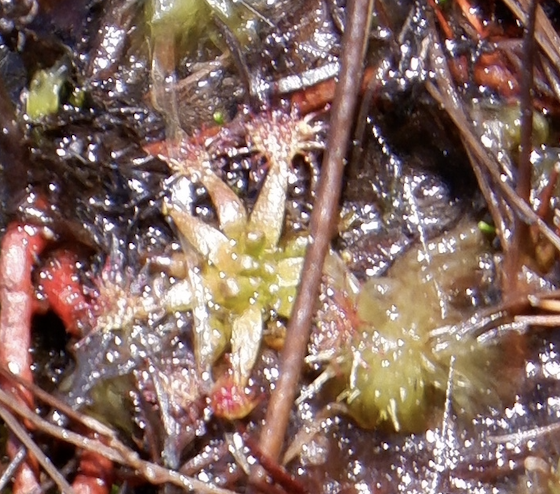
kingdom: Plantae
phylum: Tracheophyta
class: Magnoliopsida
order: Caryophyllales
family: Droseraceae
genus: Drosera
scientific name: Drosera intermedia
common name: Oblong-leaved sundew
